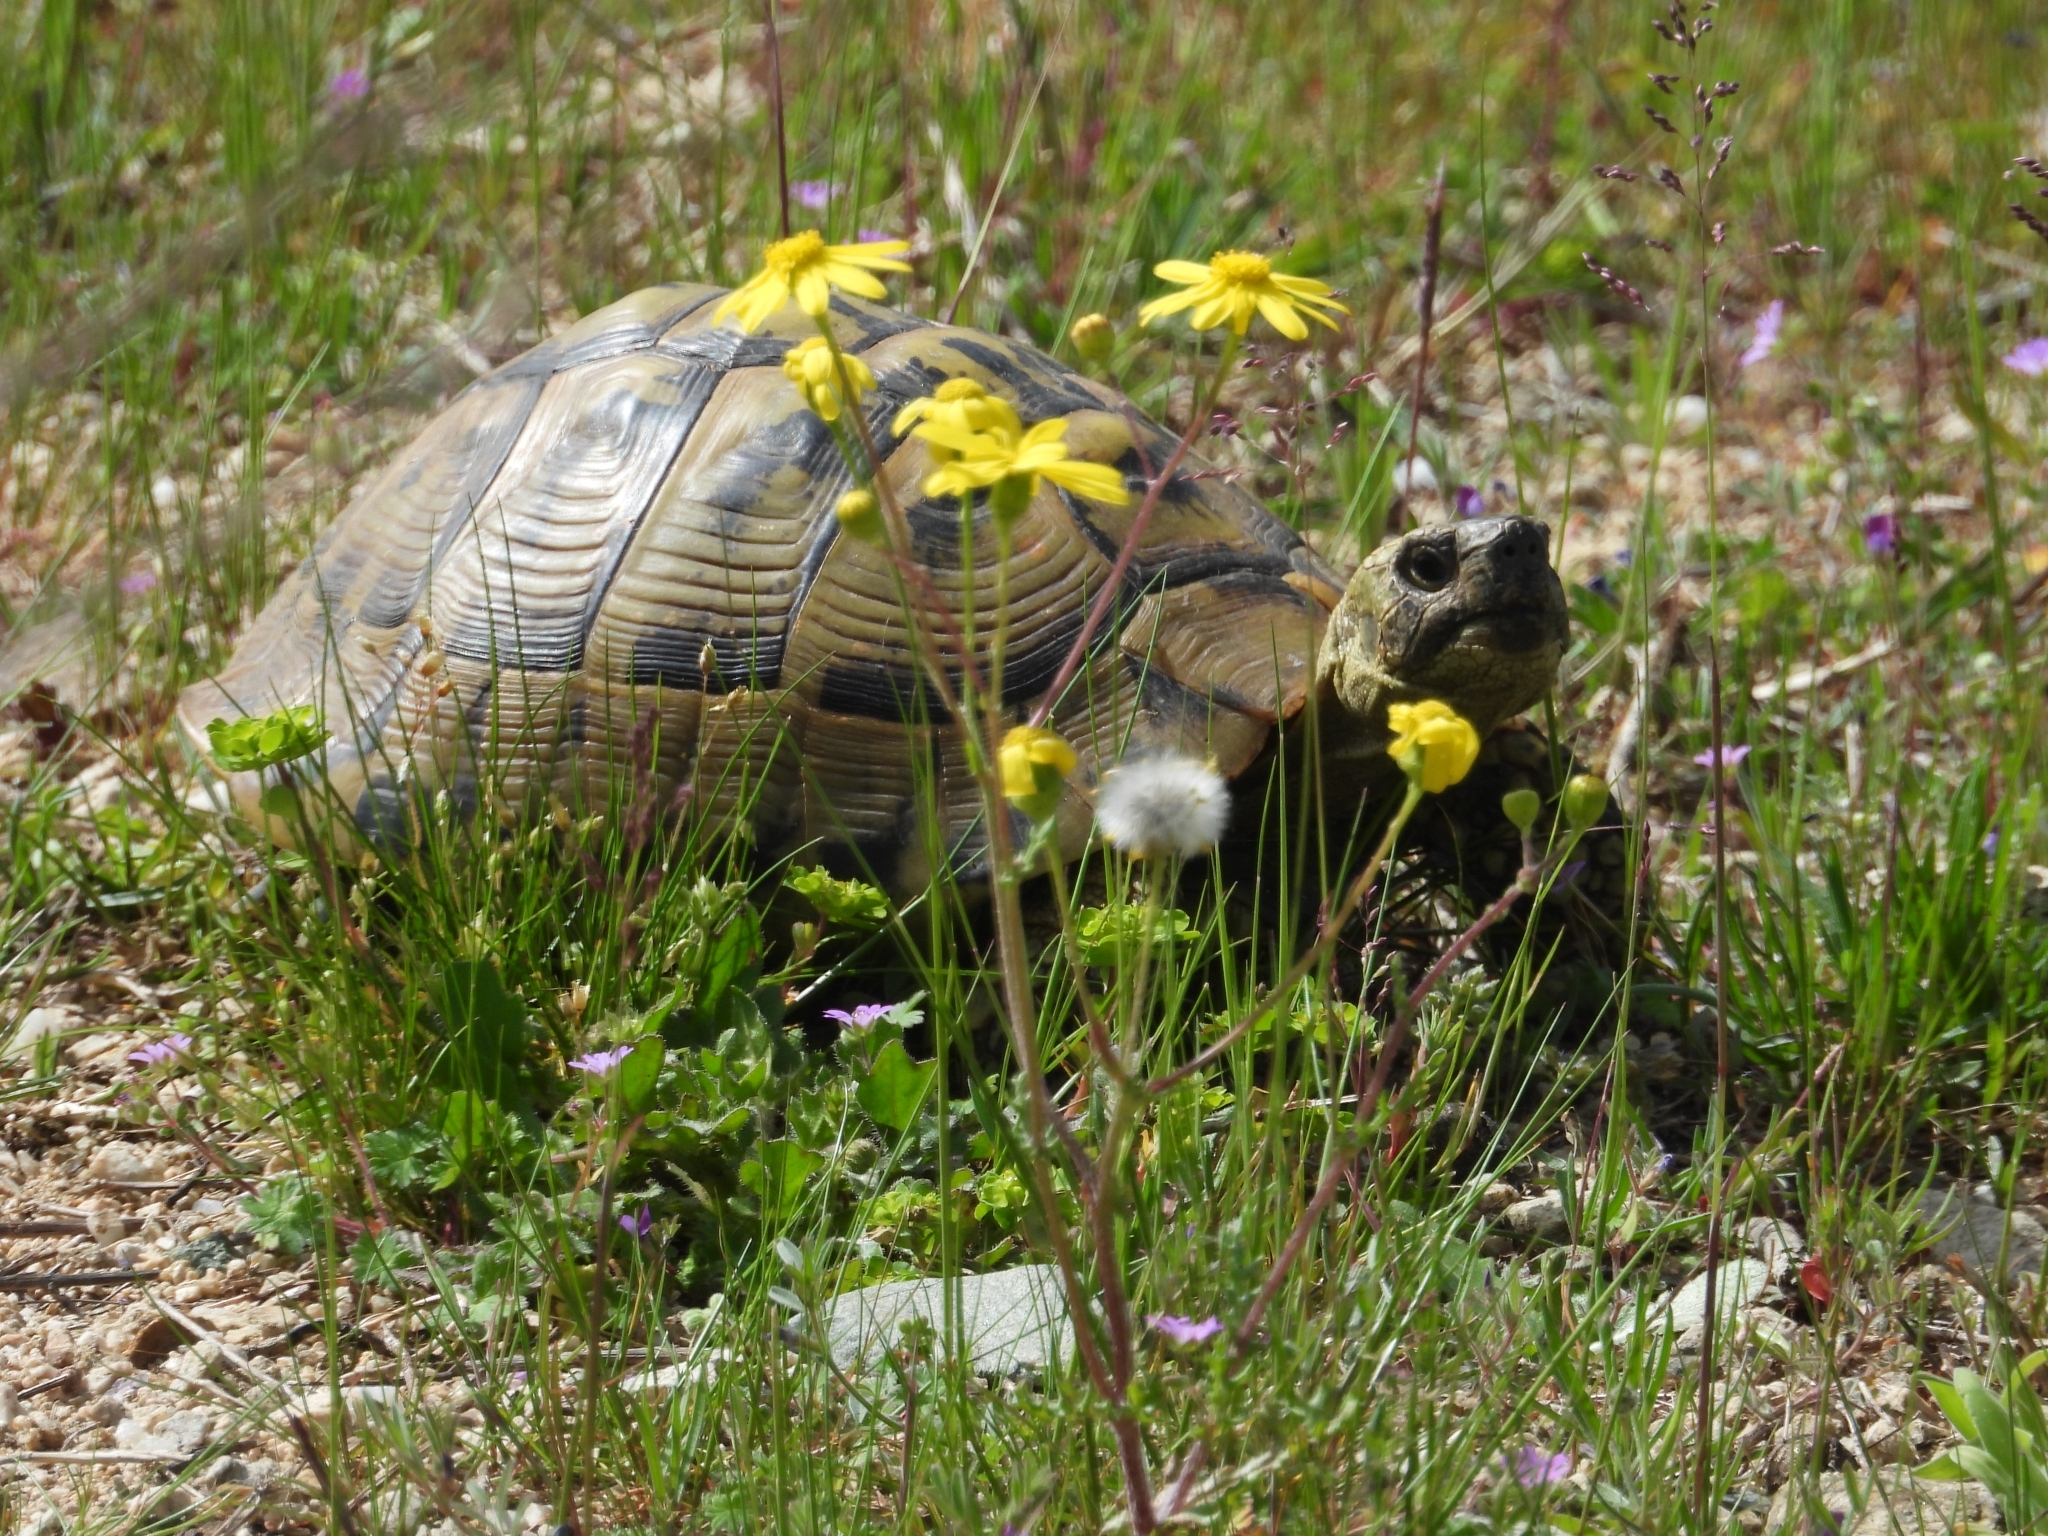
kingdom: Animalia
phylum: Chordata
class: Testudines
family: Testudinidae
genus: Testudo
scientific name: Testudo graeca
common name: Common tortoise
